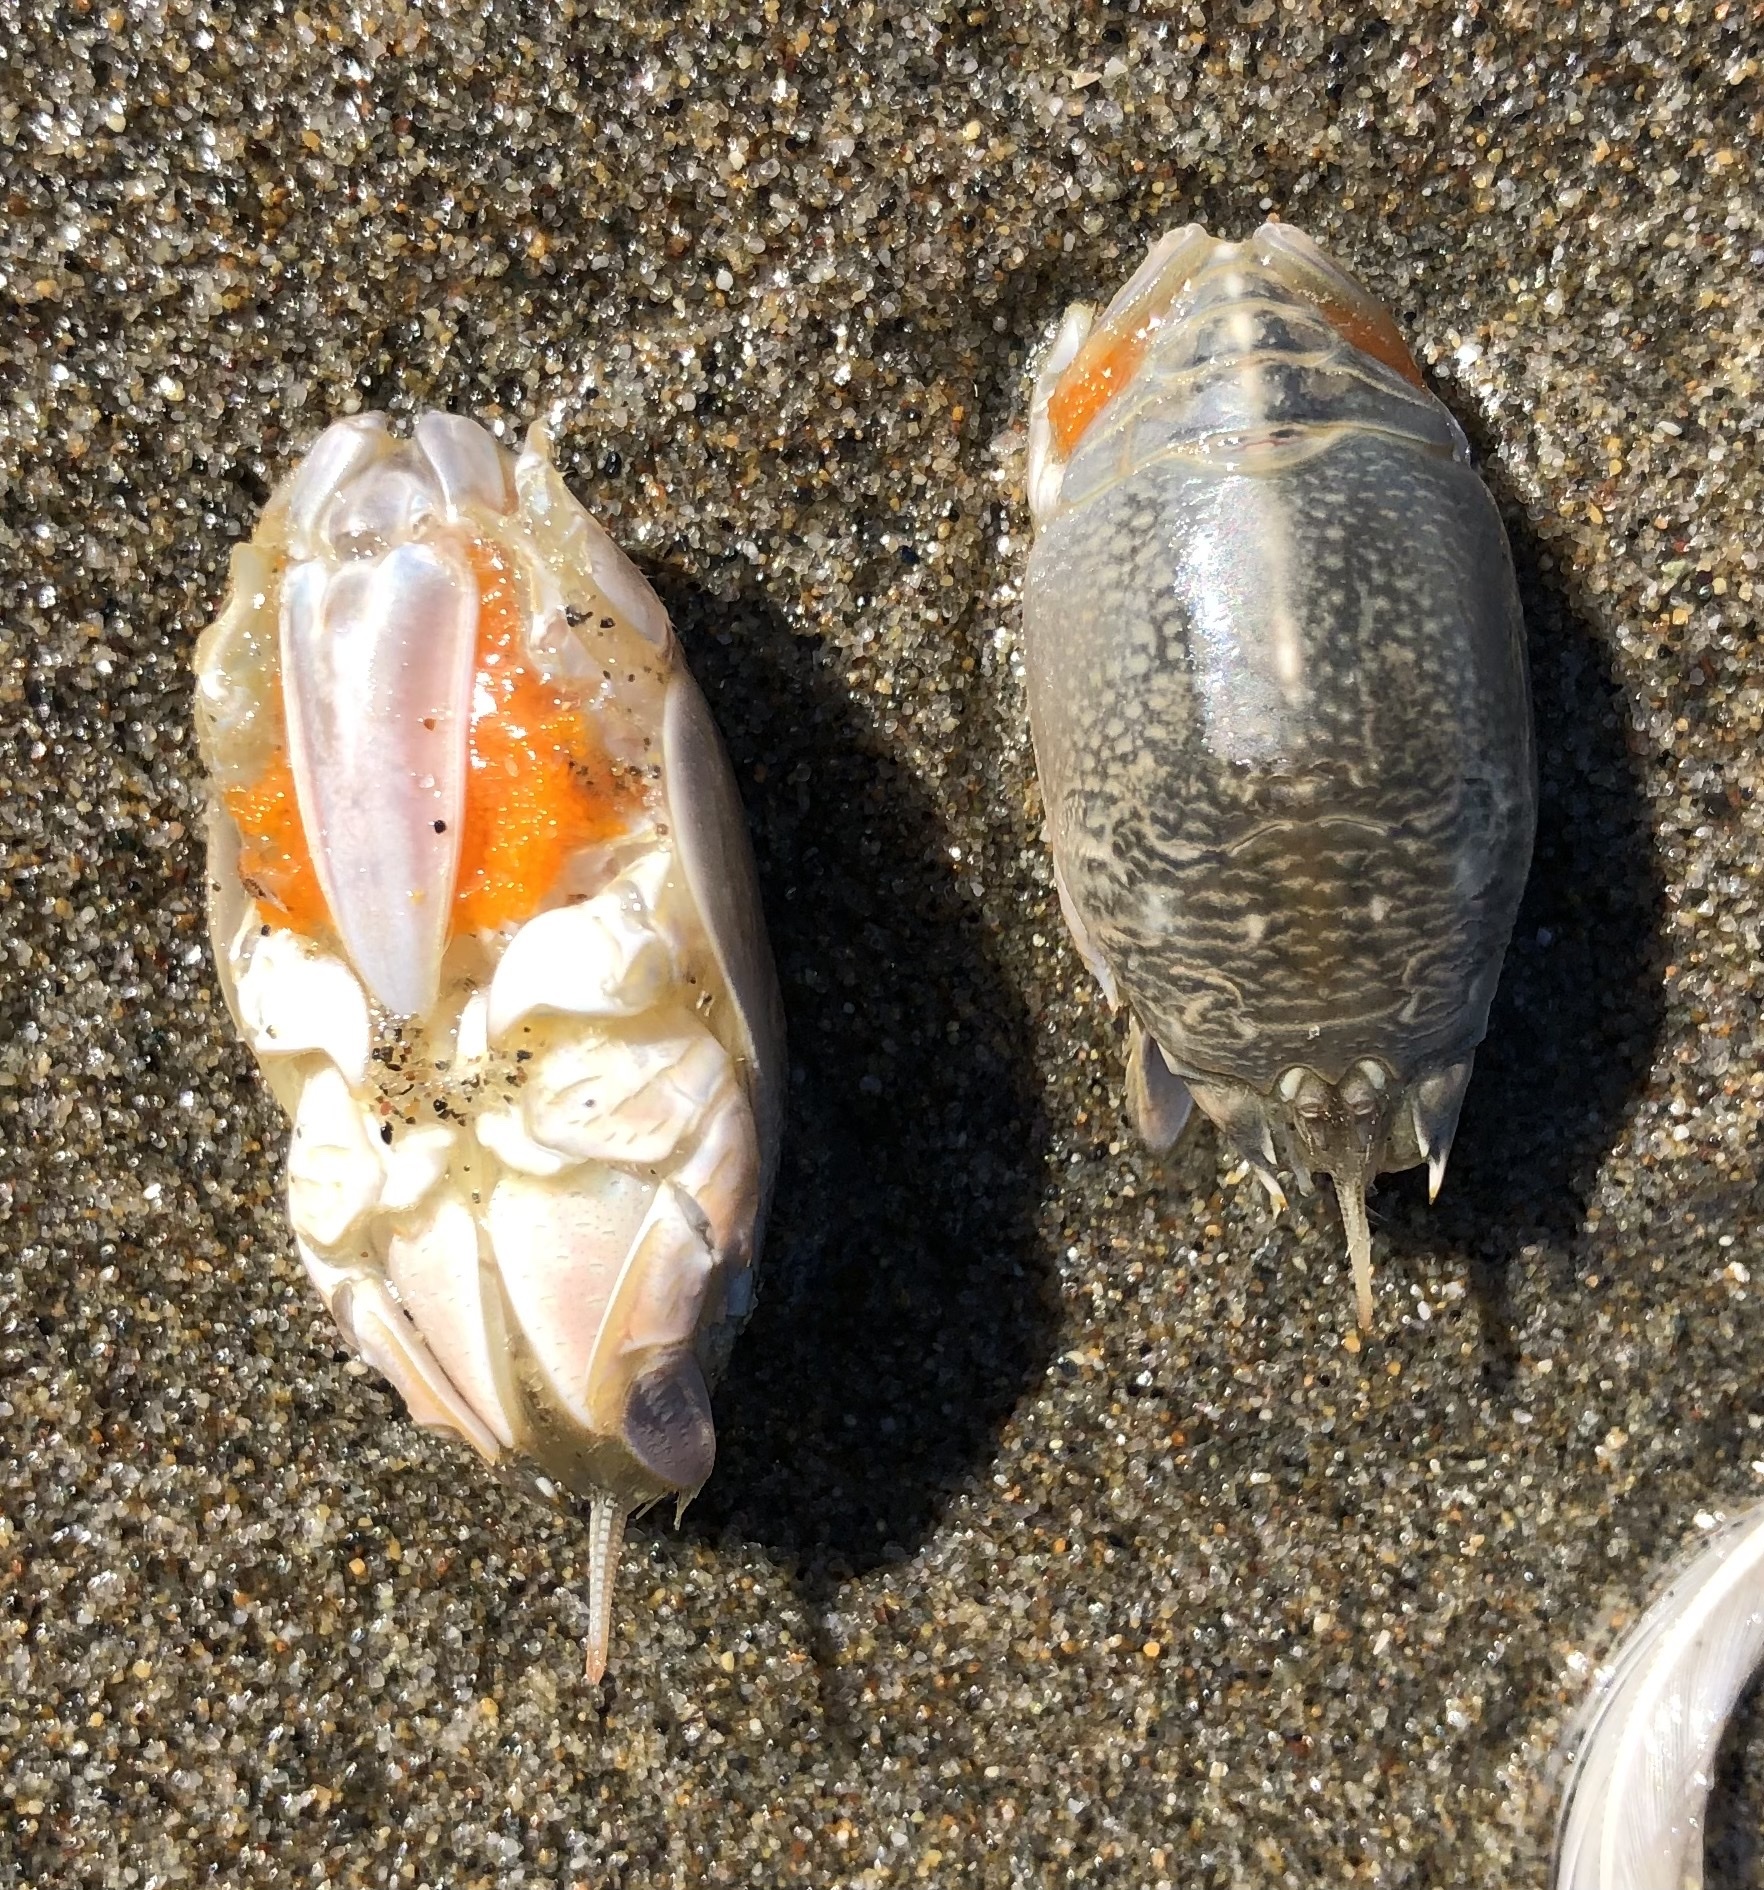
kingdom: Animalia
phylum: Arthropoda
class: Malacostraca
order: Decapoda
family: Hippidae
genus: Emerita
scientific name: Emerita analoga
